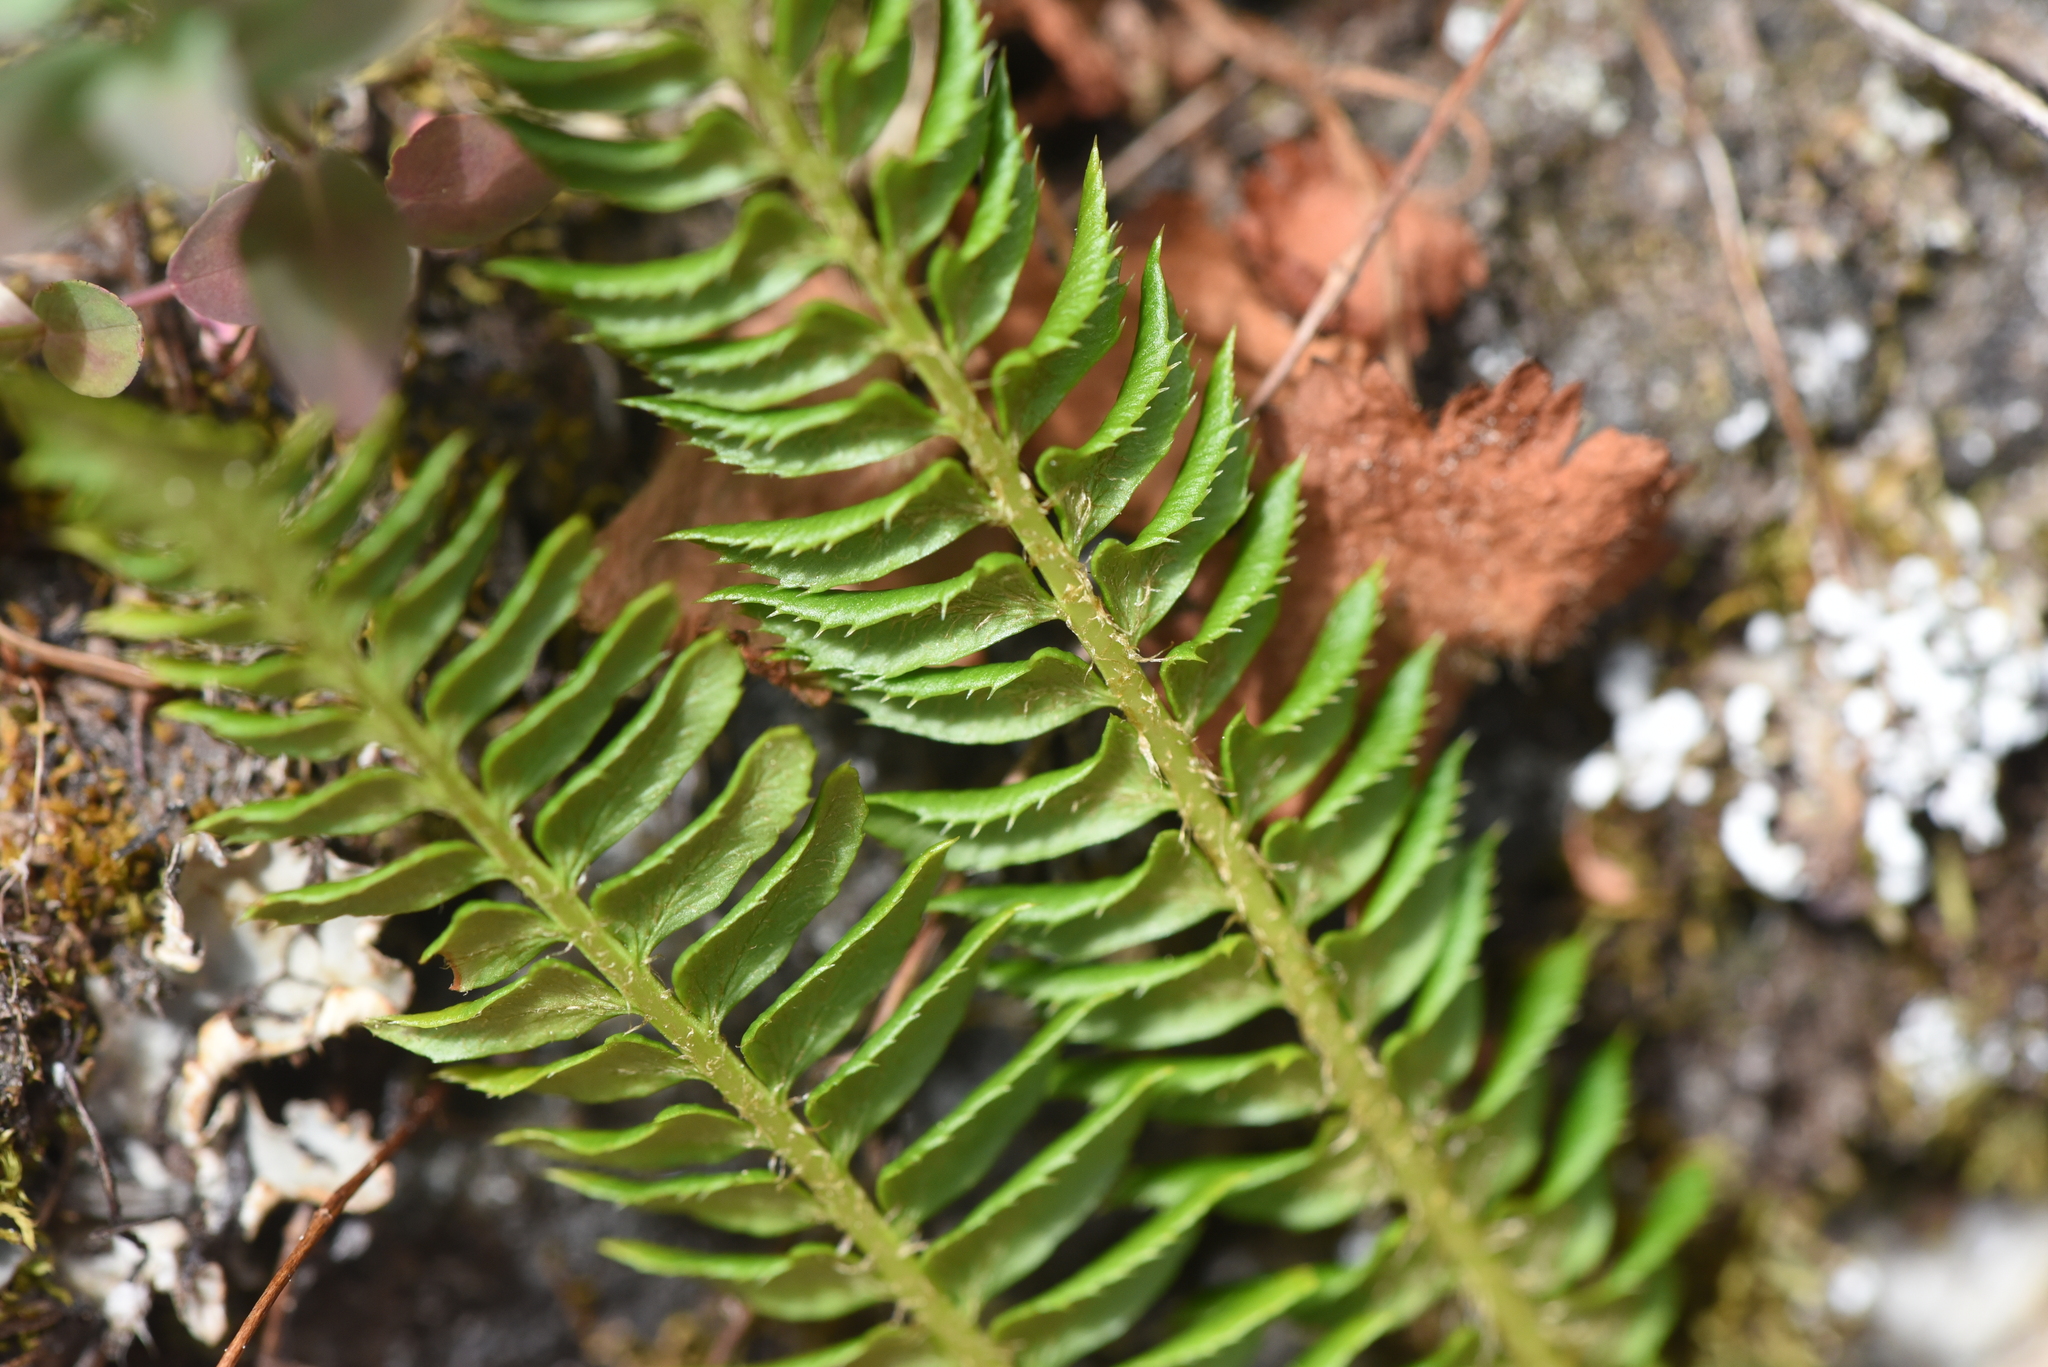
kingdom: Plantae
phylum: Tracheophyta
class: Polypodiopsida
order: Polypodiales
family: Dryopteridaceae
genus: Polystichum
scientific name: Polystichum lonchitis
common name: Holly fern
